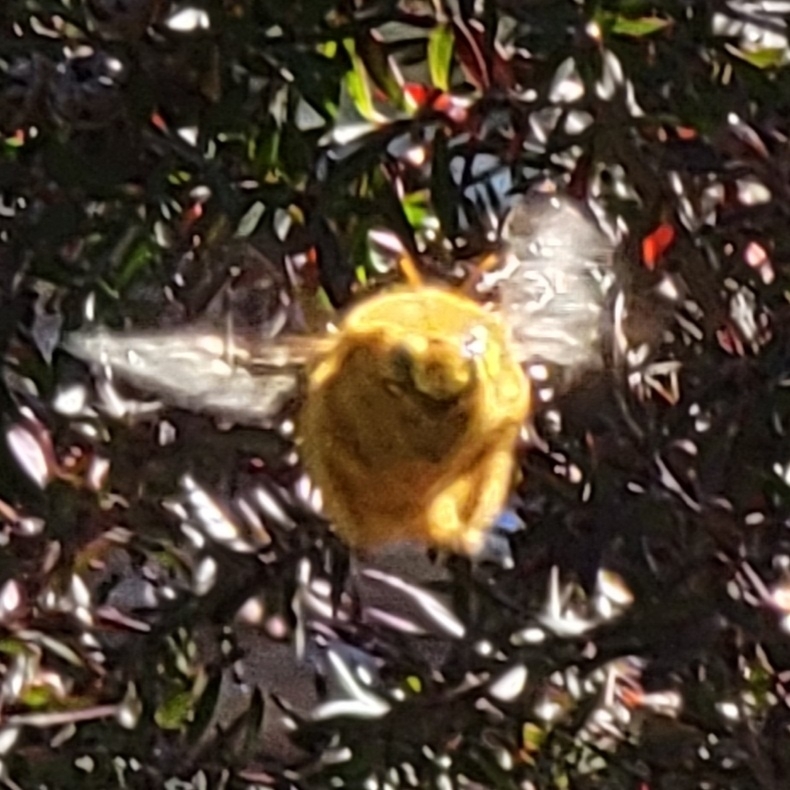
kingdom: Animalia
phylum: Arthropoda
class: Insecta
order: Hymenoptera
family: Apidae
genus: Xylocopa
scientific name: Xylocopa sonorina
